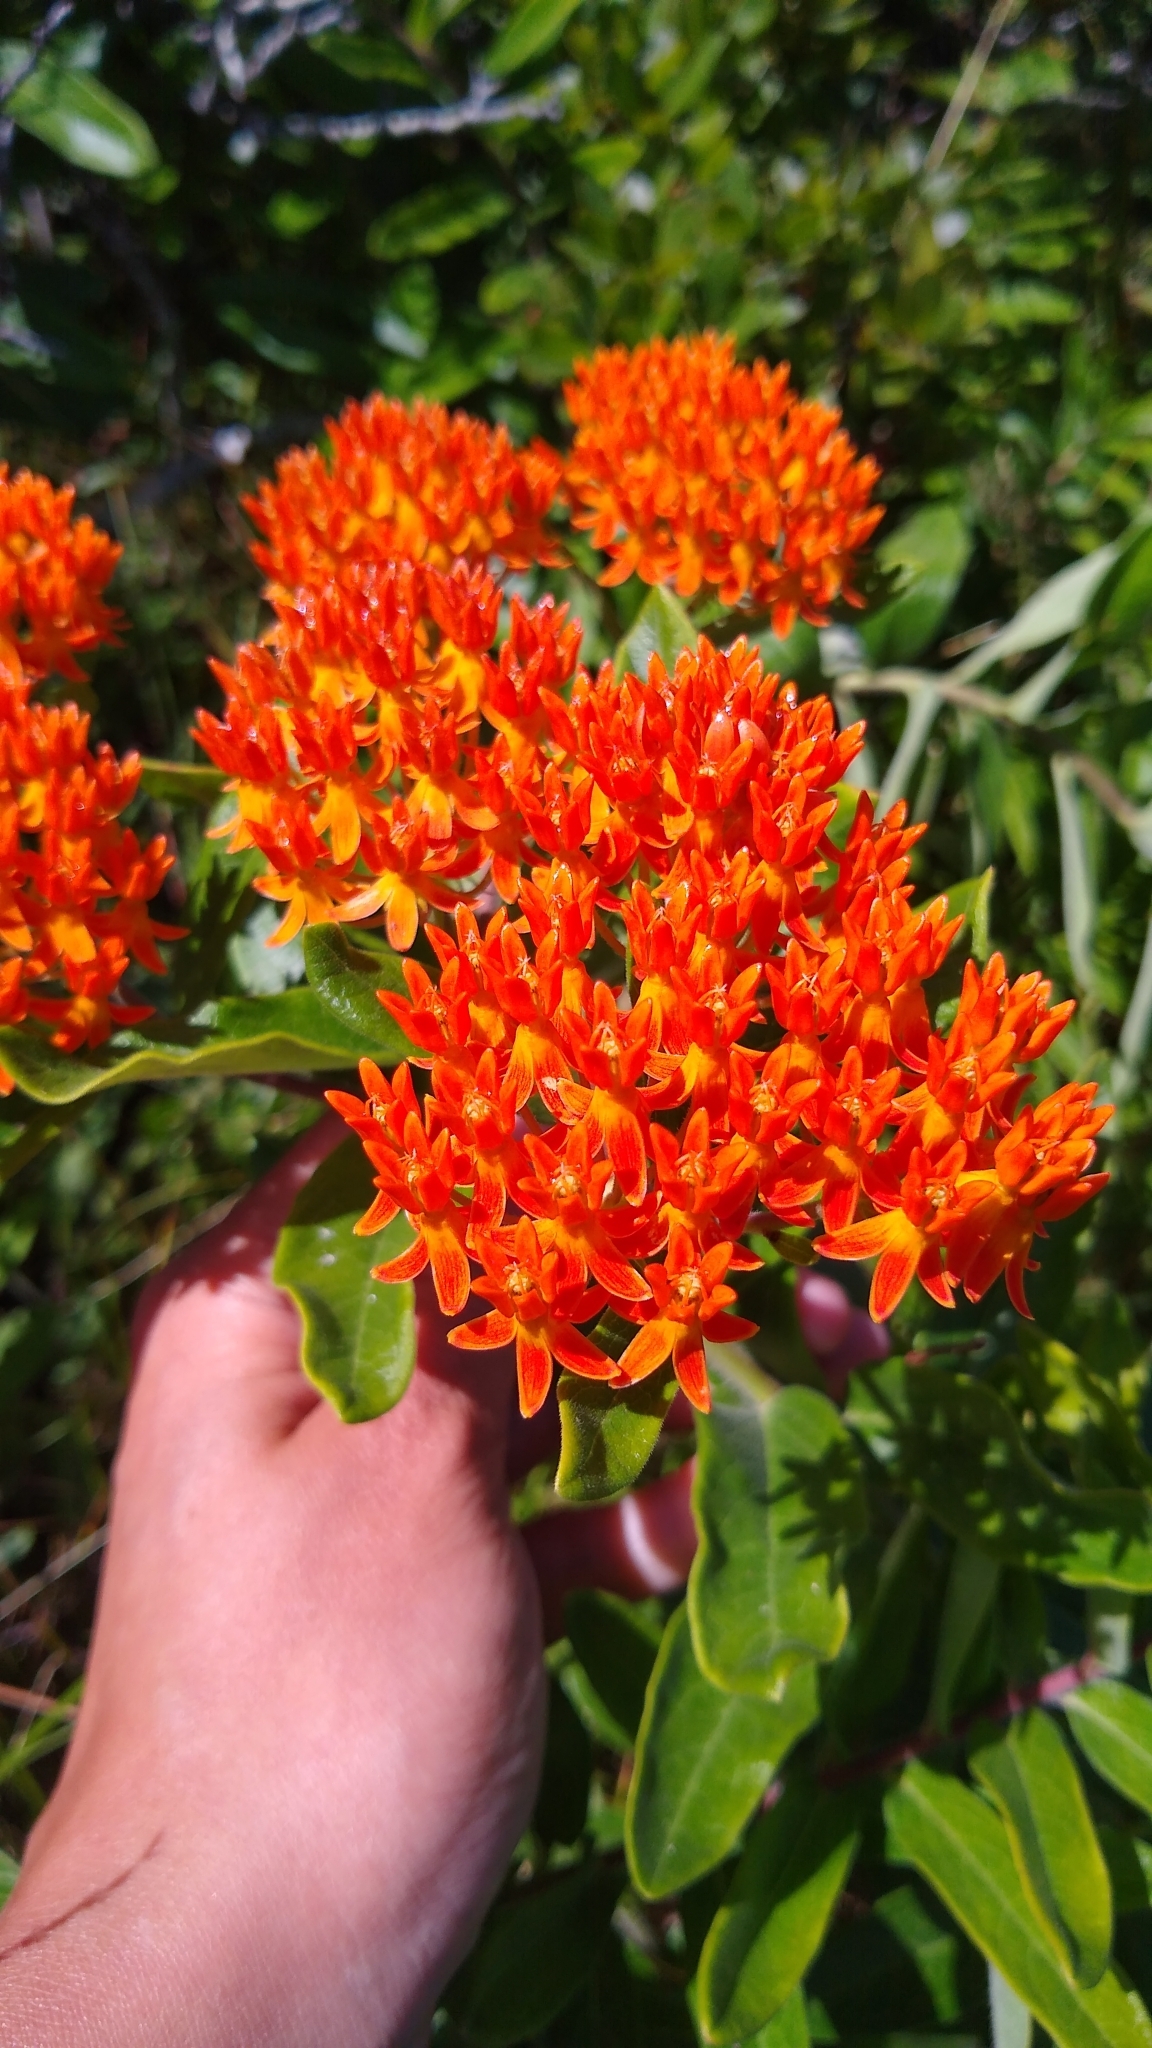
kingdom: Plantae
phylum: Tracheophyta
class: Magnoliopsida
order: Gentianales
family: Apocynaceae
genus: Asclepias
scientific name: Asclepias tuberosa
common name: Butterfly milkweed
